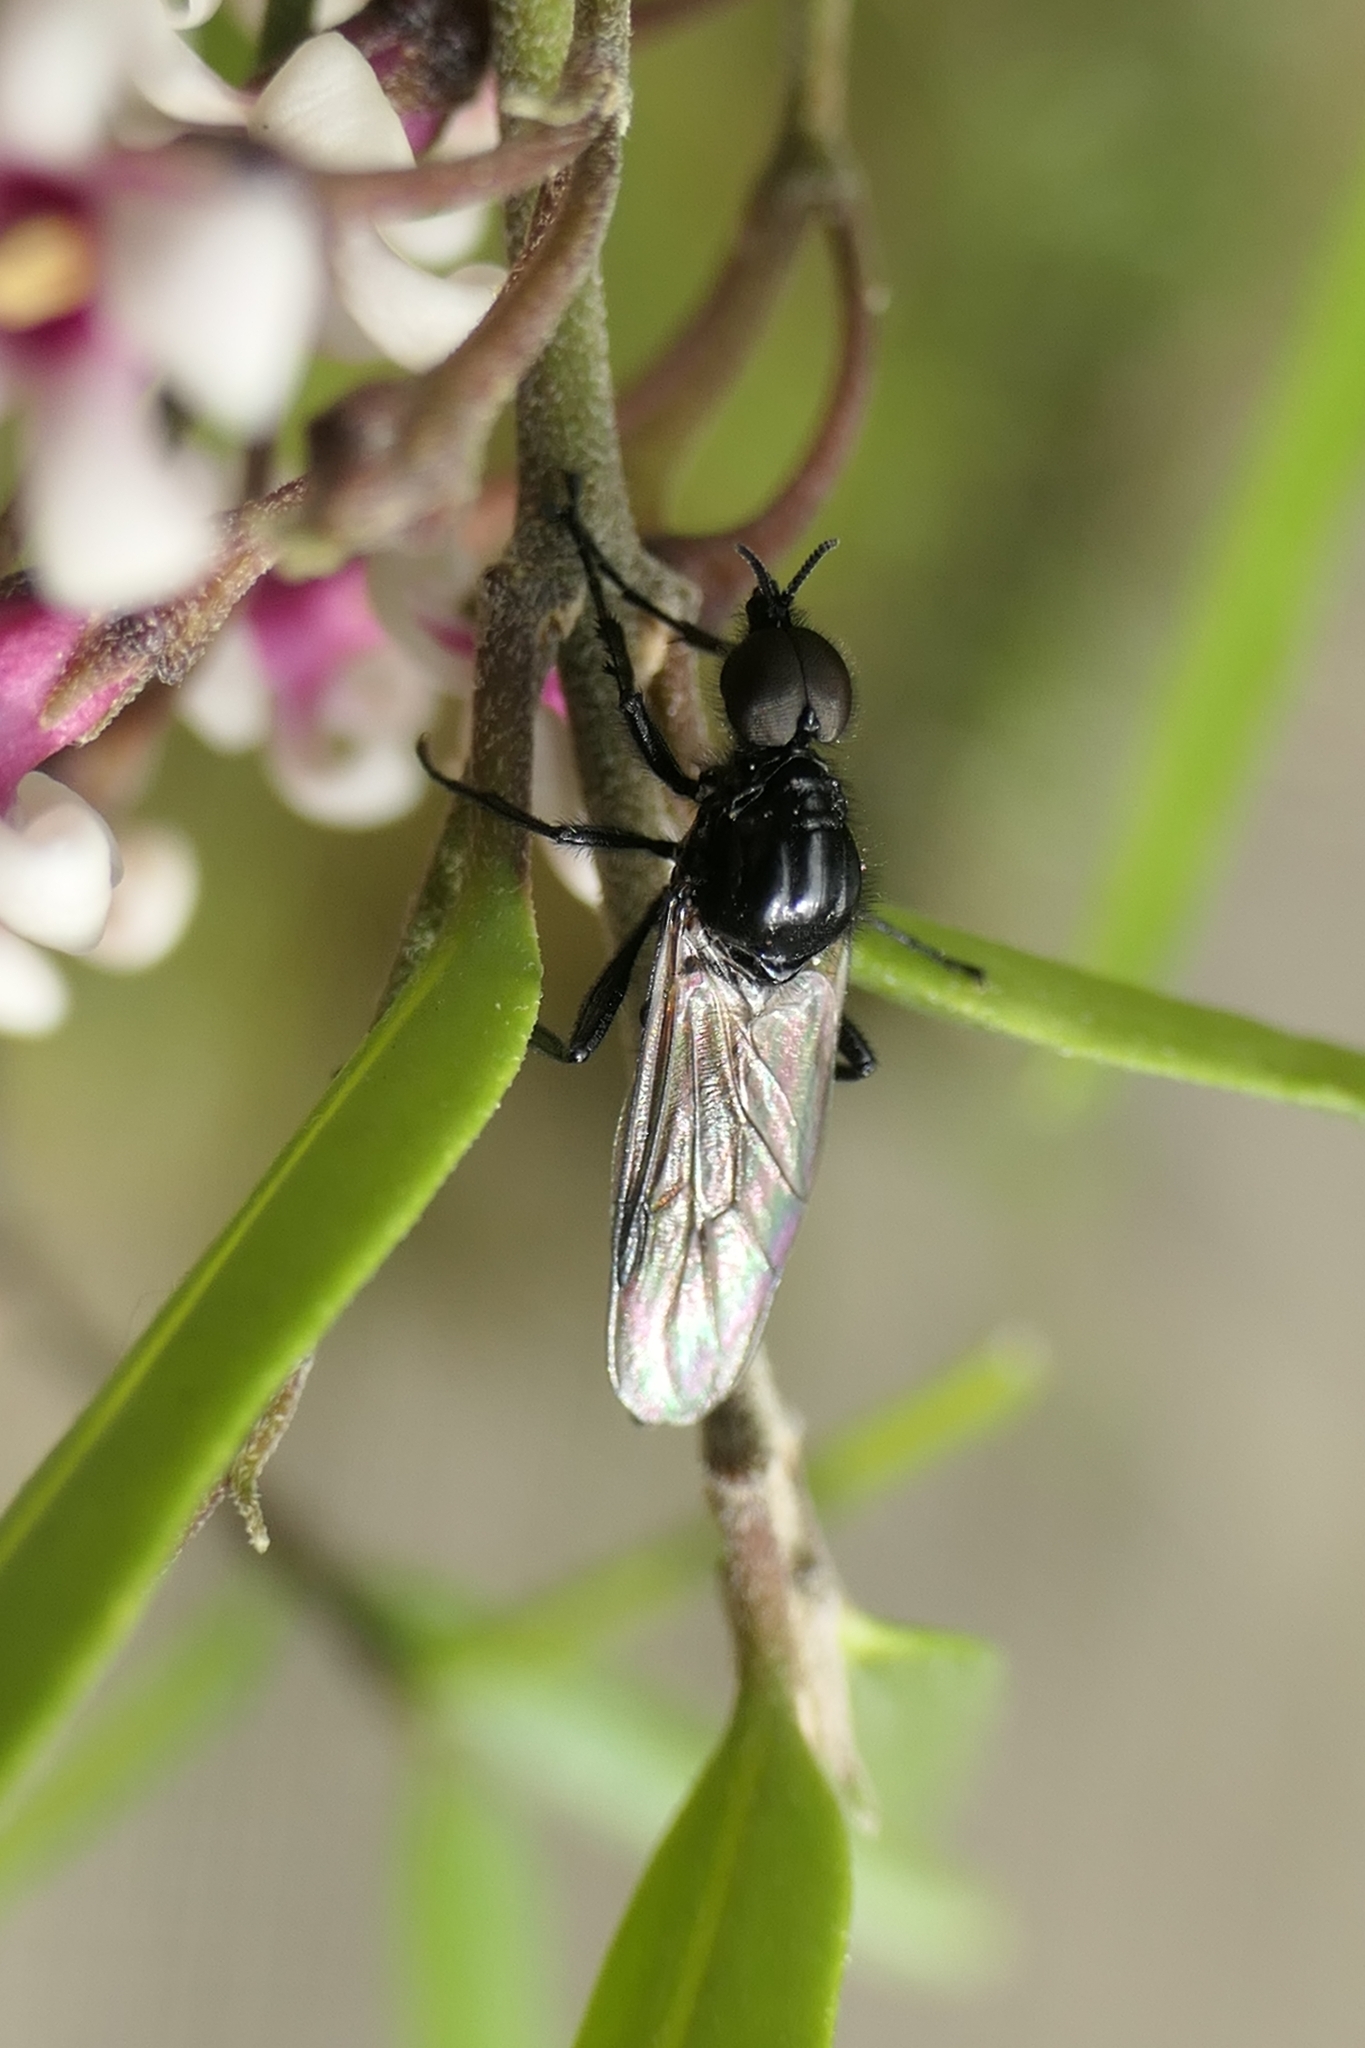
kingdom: Animalia
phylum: Arthropoda
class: Insecta
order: Diptera
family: Bibionidae
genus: Dilophus
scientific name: Dilophus nigrostigma
